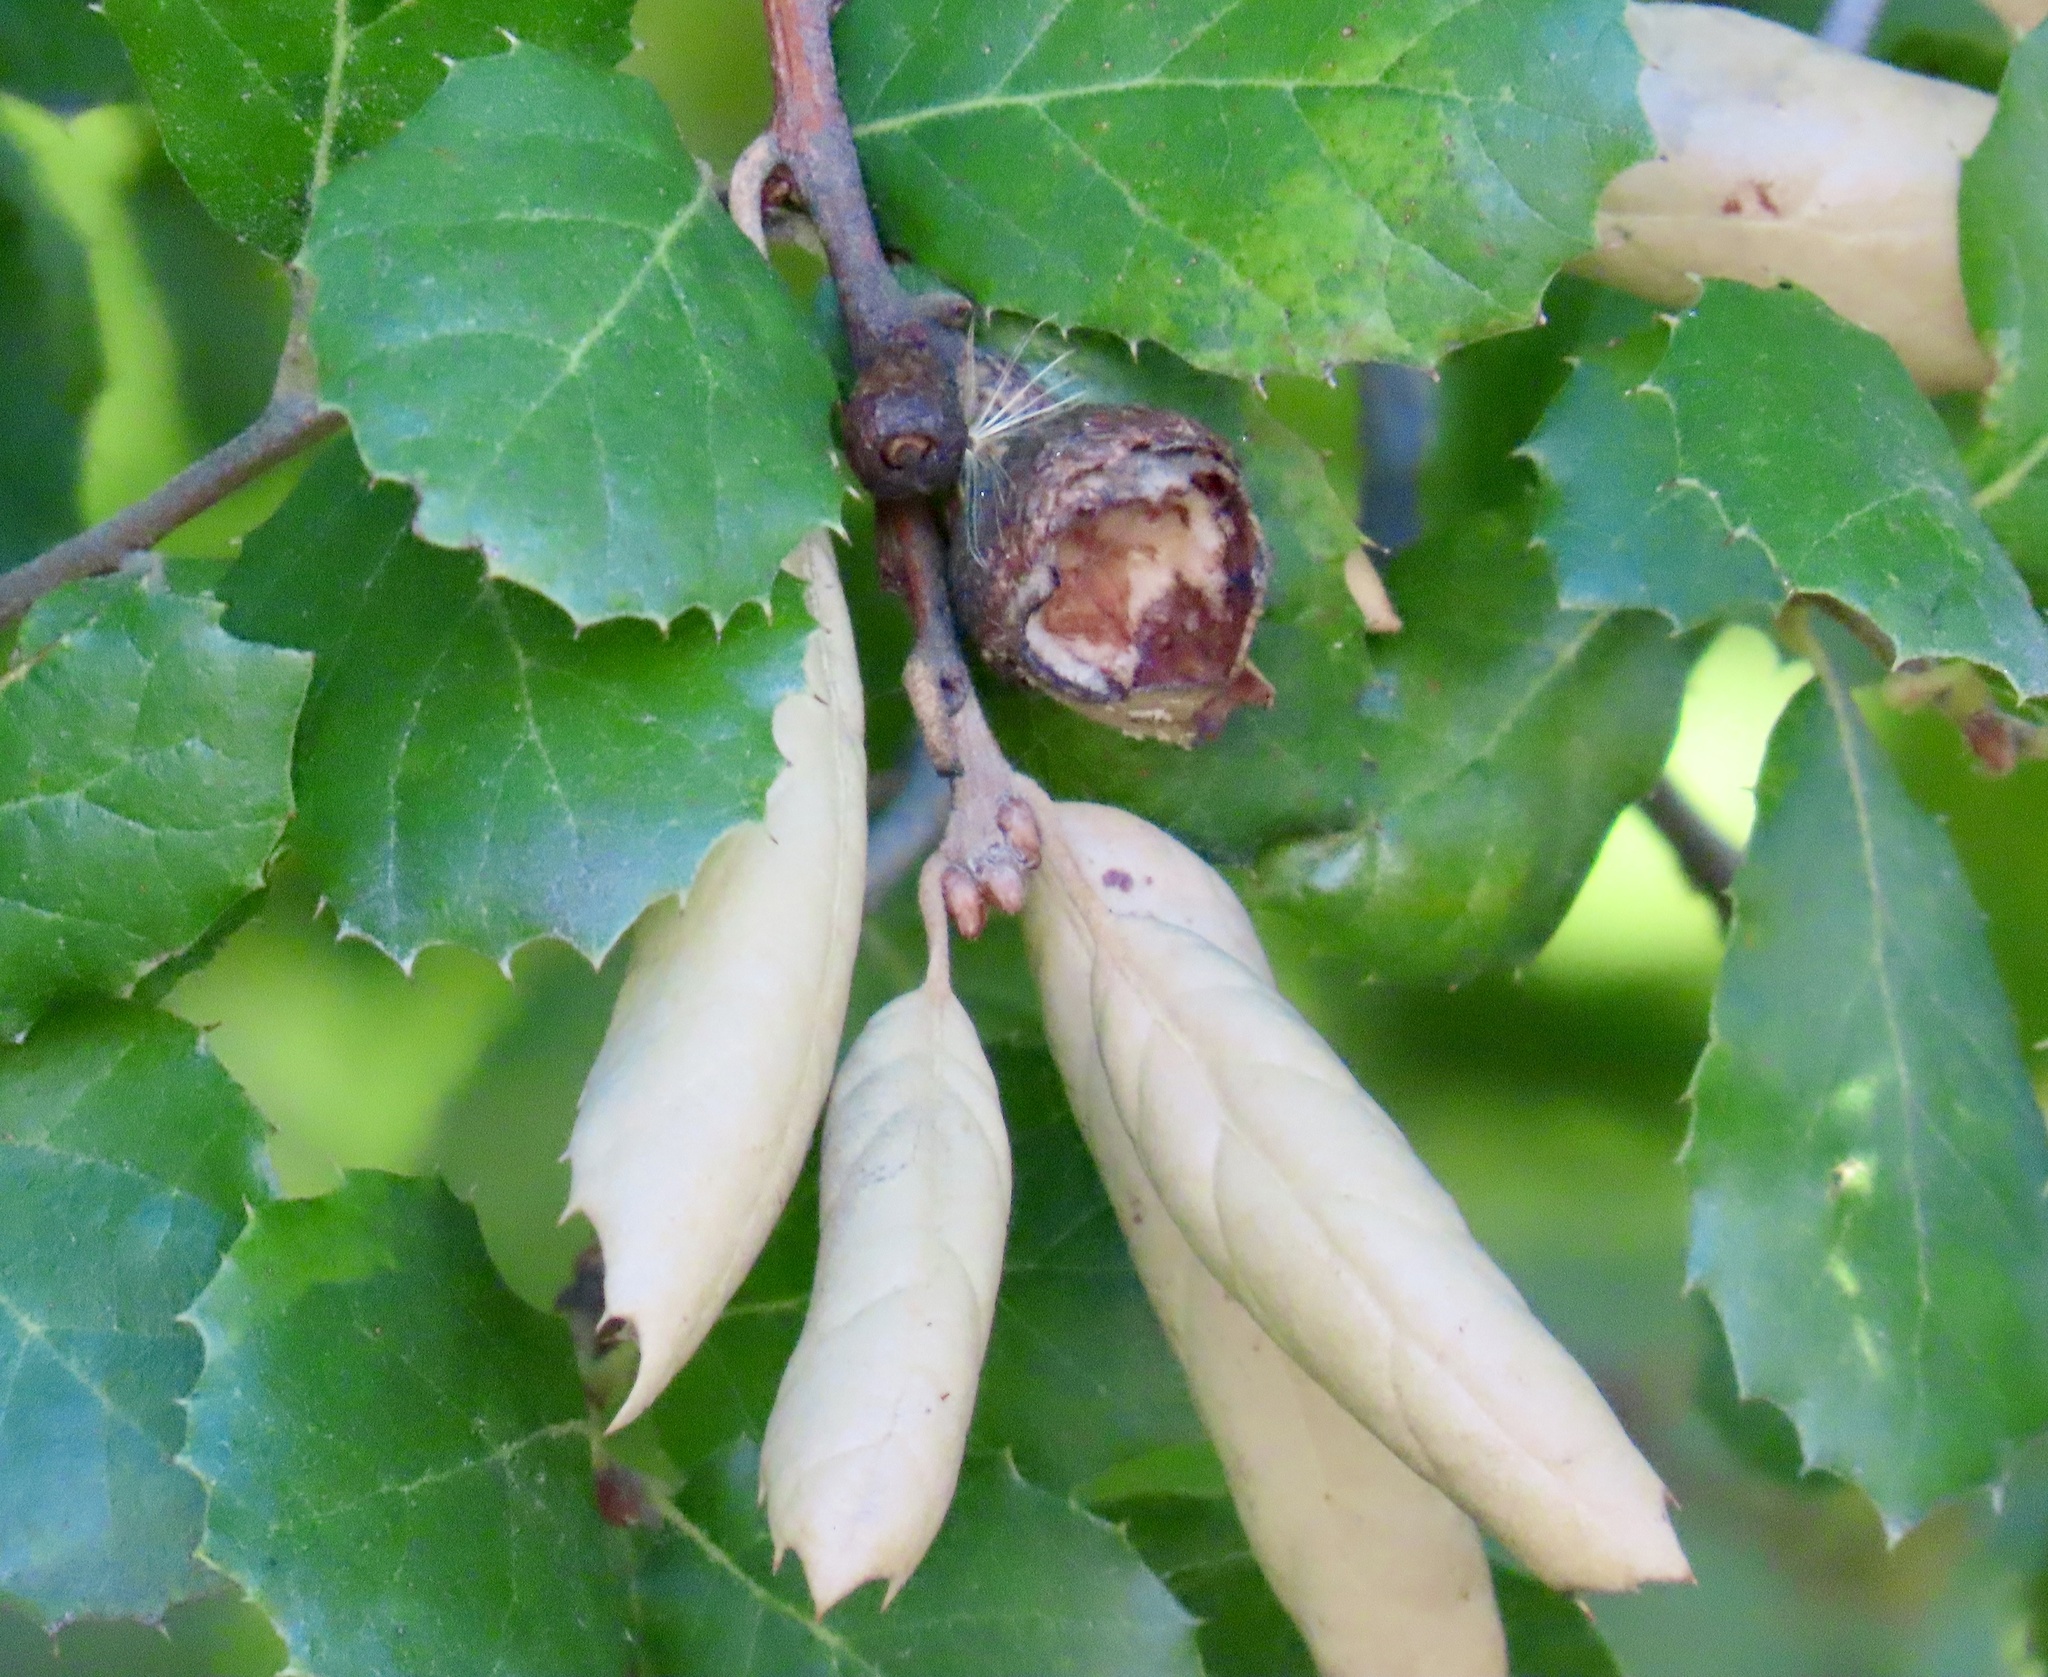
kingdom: Plantae
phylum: Tracheophyta
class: Magnoliopsida
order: Fagales
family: Fagaceae
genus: Quercus
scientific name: Quercus agrifolia
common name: California live oak
